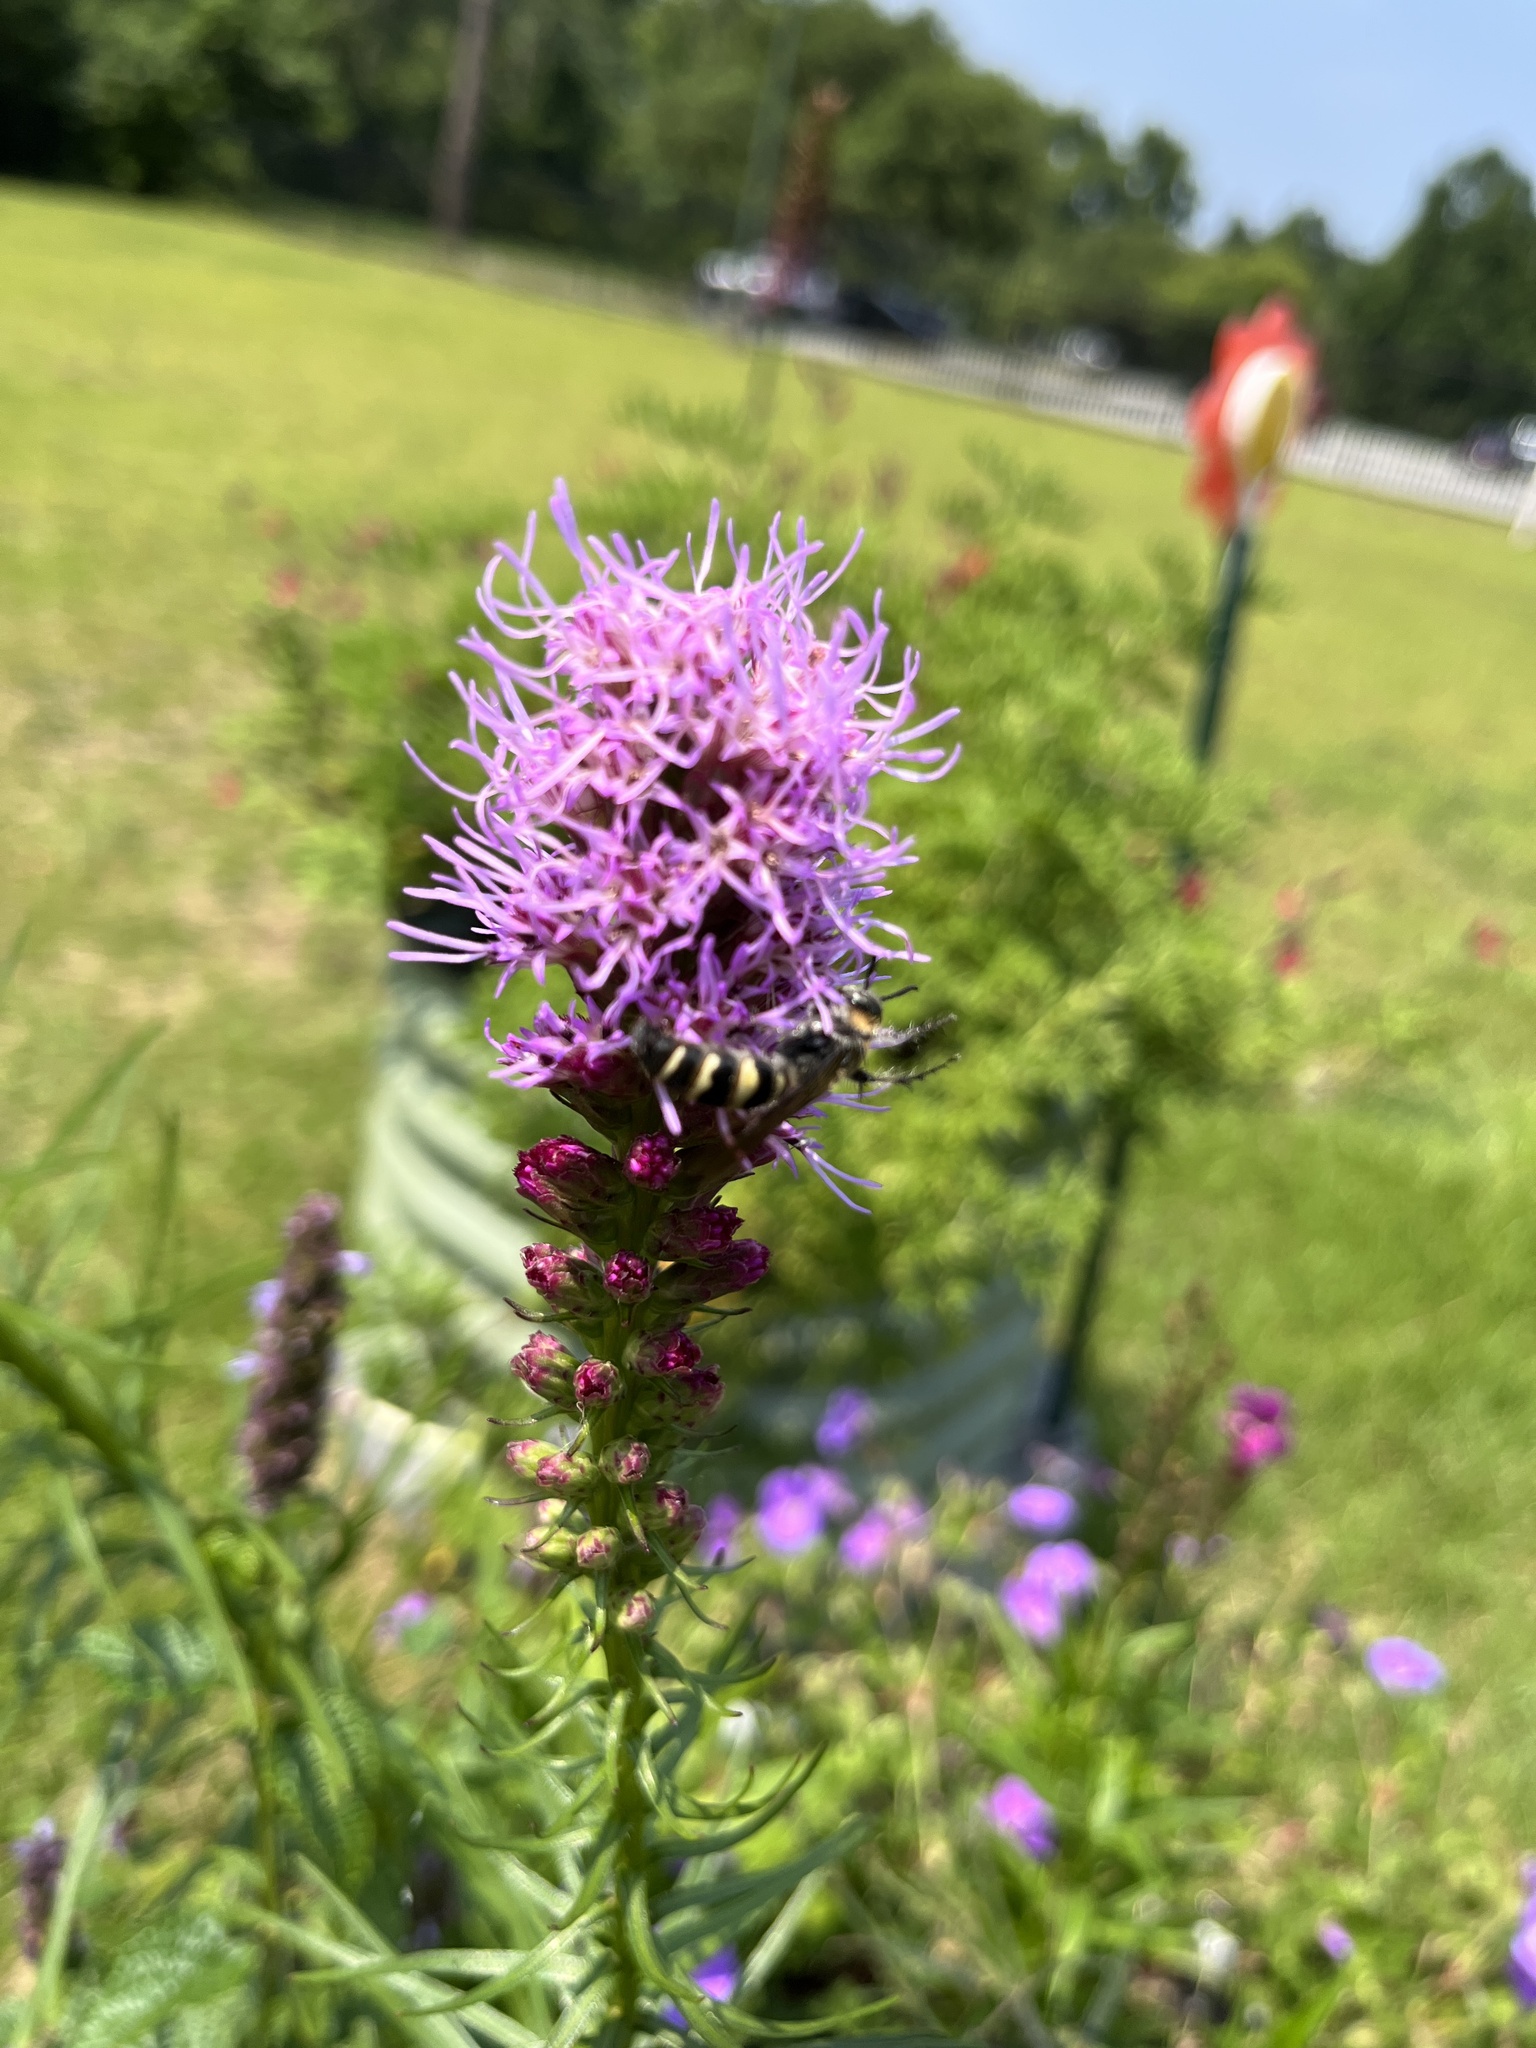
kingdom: Animalia
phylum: Arthropoda
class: Insecta
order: Hymenoptera
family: Scoliidae
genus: Dielis
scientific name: Dielis
